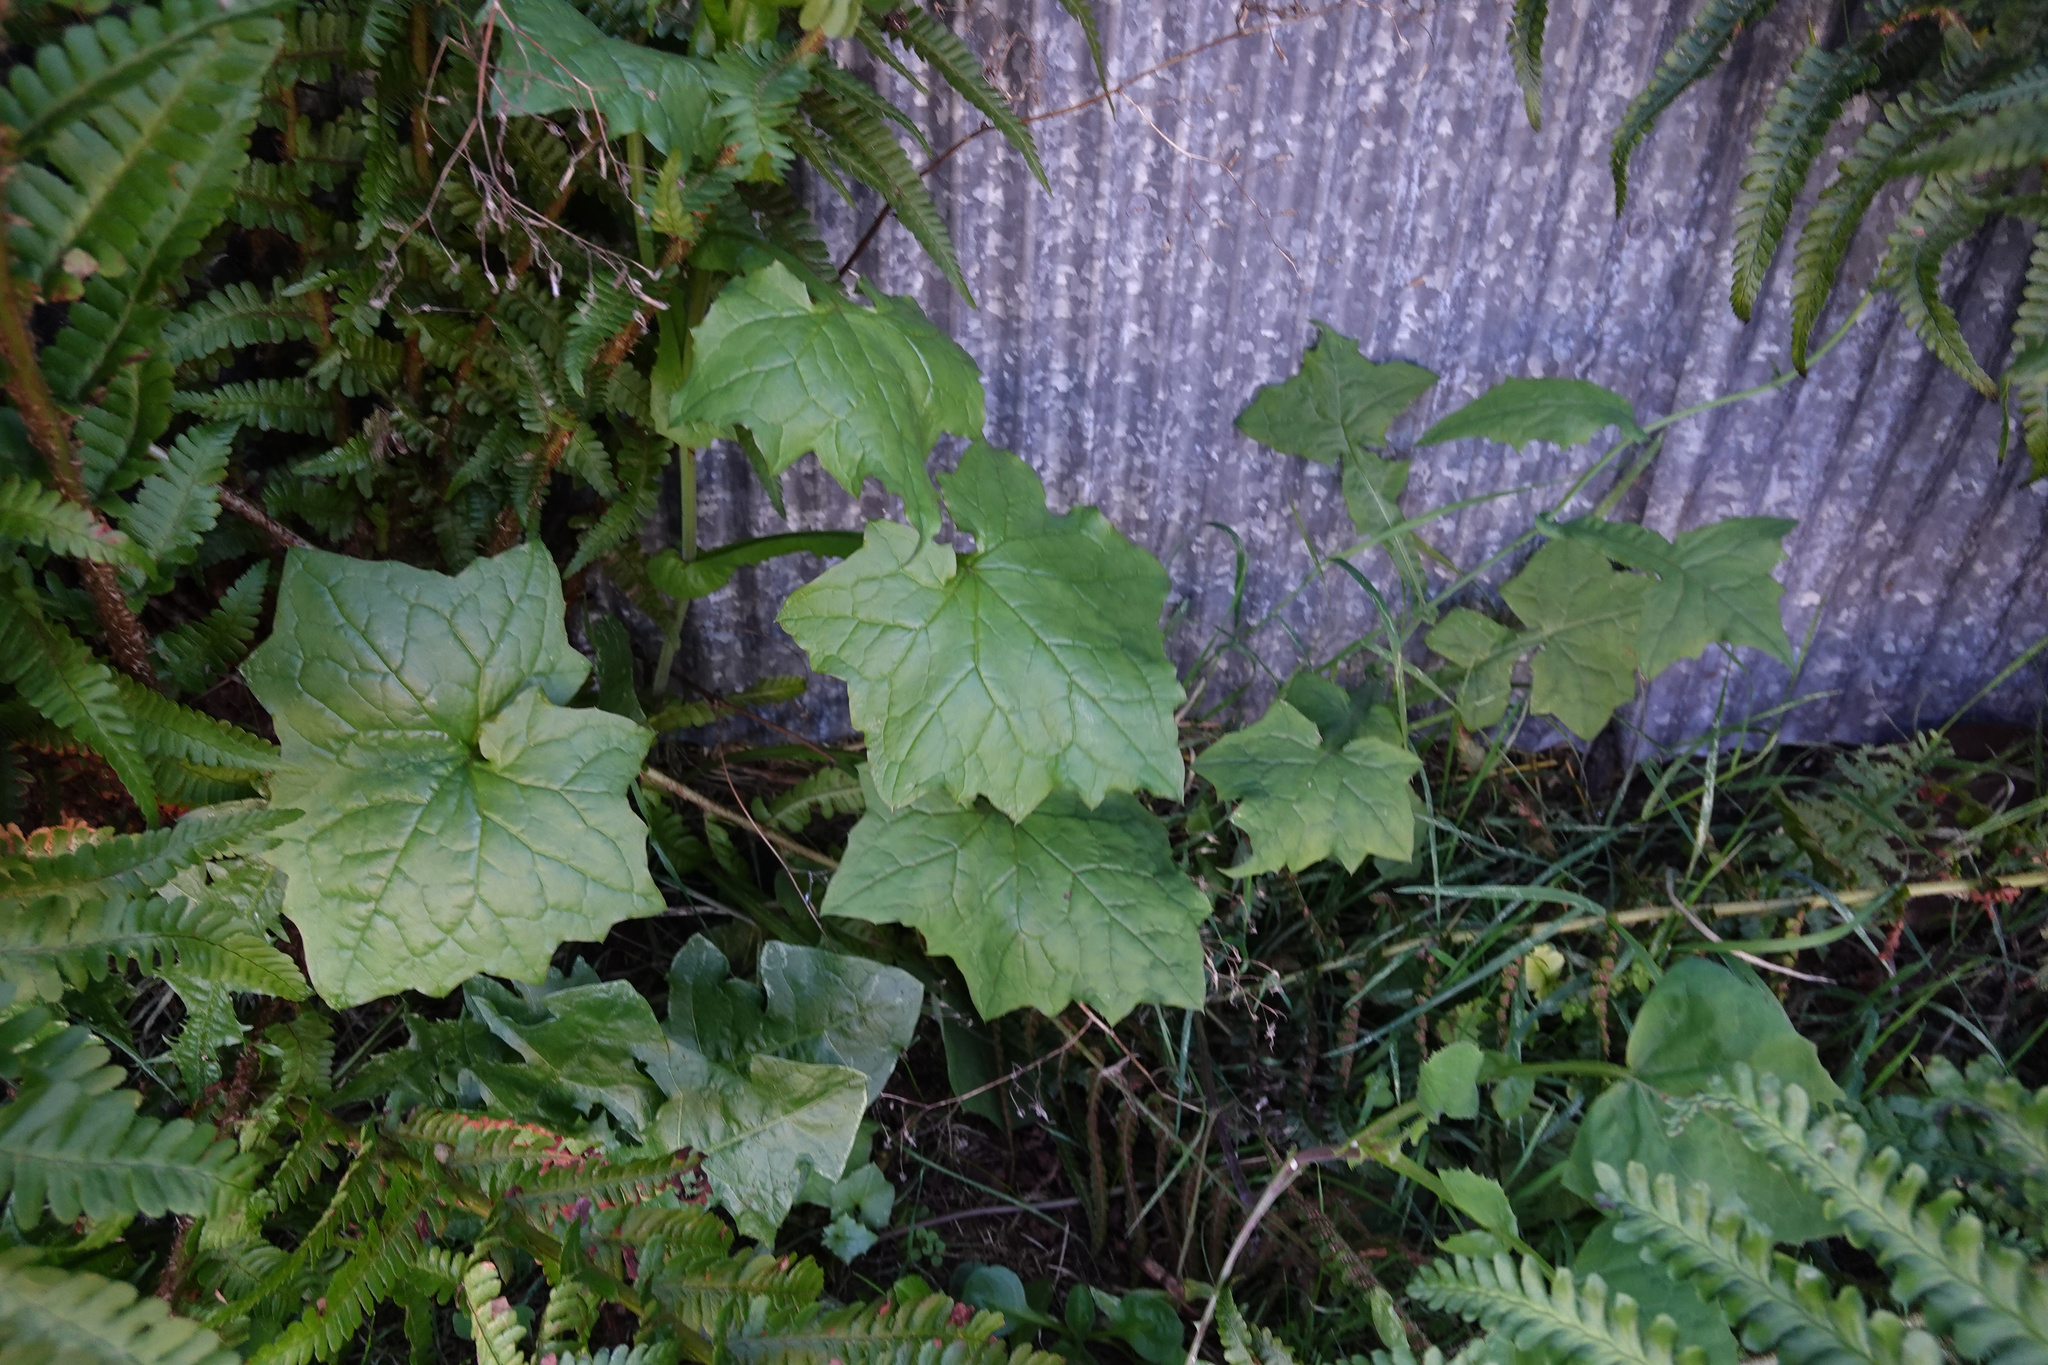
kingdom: Plantae
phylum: Tracheophyta
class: Magnoliopsida
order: Asterales
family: Asteraceae
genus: Mycelis
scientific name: Mycelis muralis
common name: Wall lettuce
